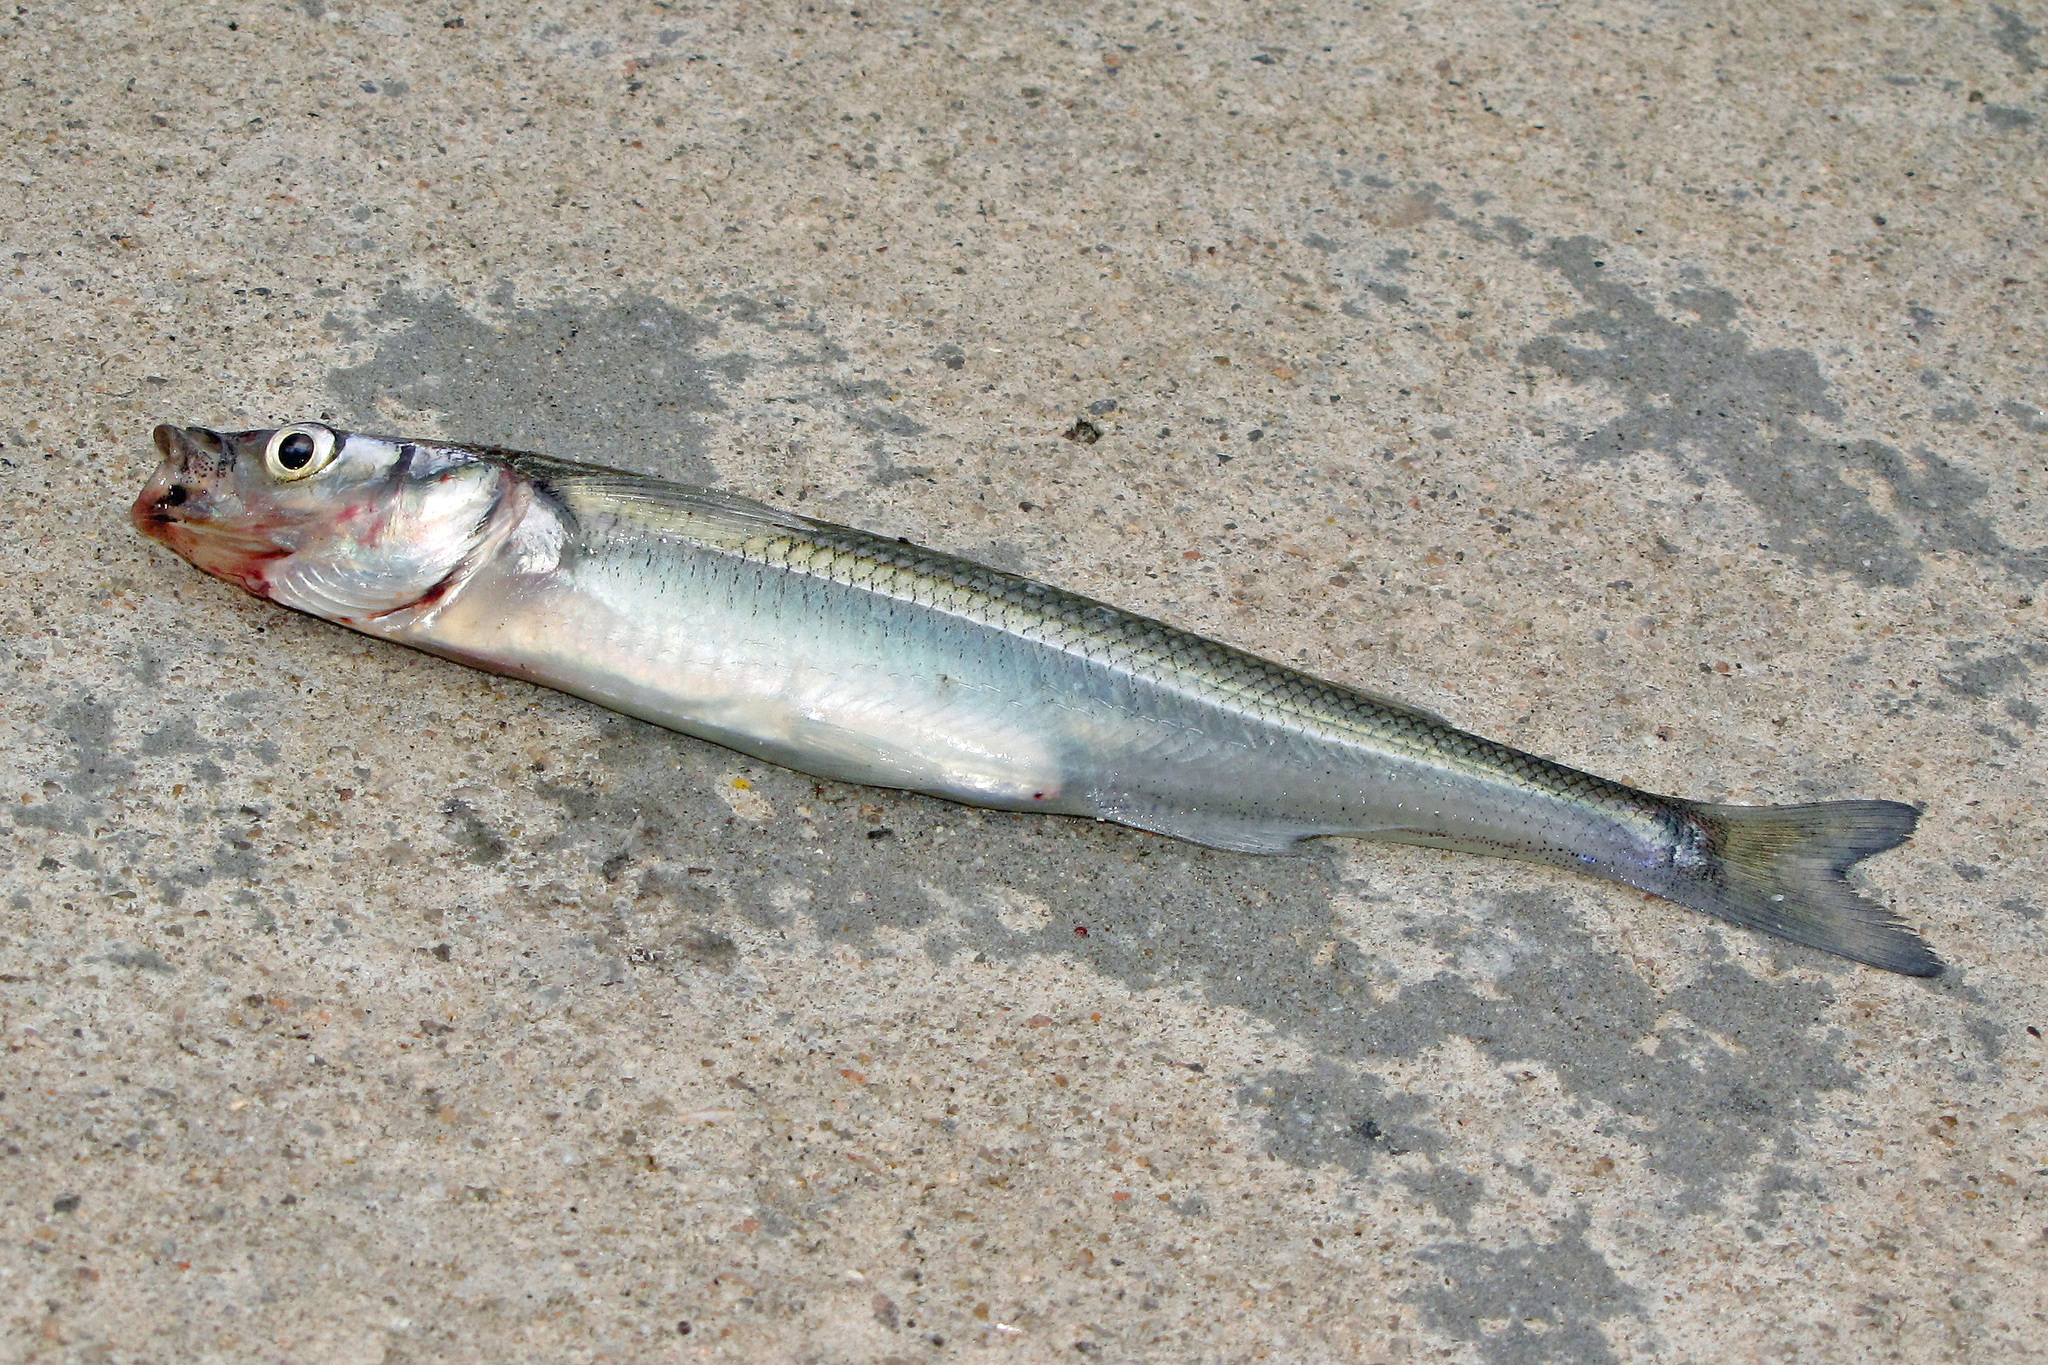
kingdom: Animalia
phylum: Chordata
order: Atheriniformes
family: Atherinopsidae
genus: Odontesthes
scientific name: Odontesthes bonariensis
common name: Argentinian silverside
